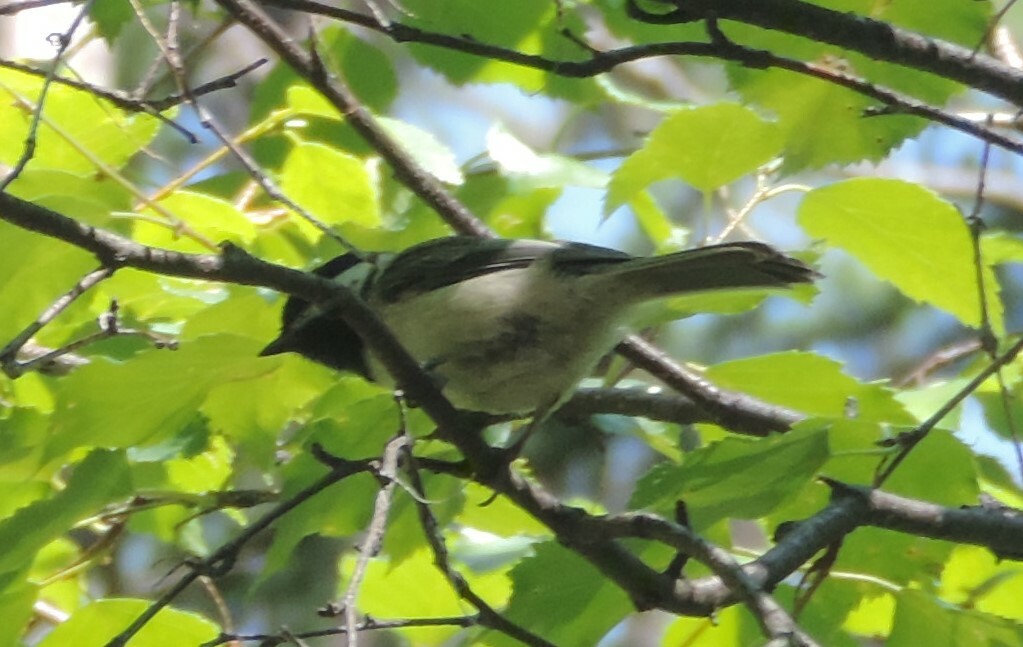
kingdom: Animalia
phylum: Chordata
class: Aves
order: Passeriformes
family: Paridae
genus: Poecile
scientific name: Poecile atricapillus
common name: Black-capped chickadee
